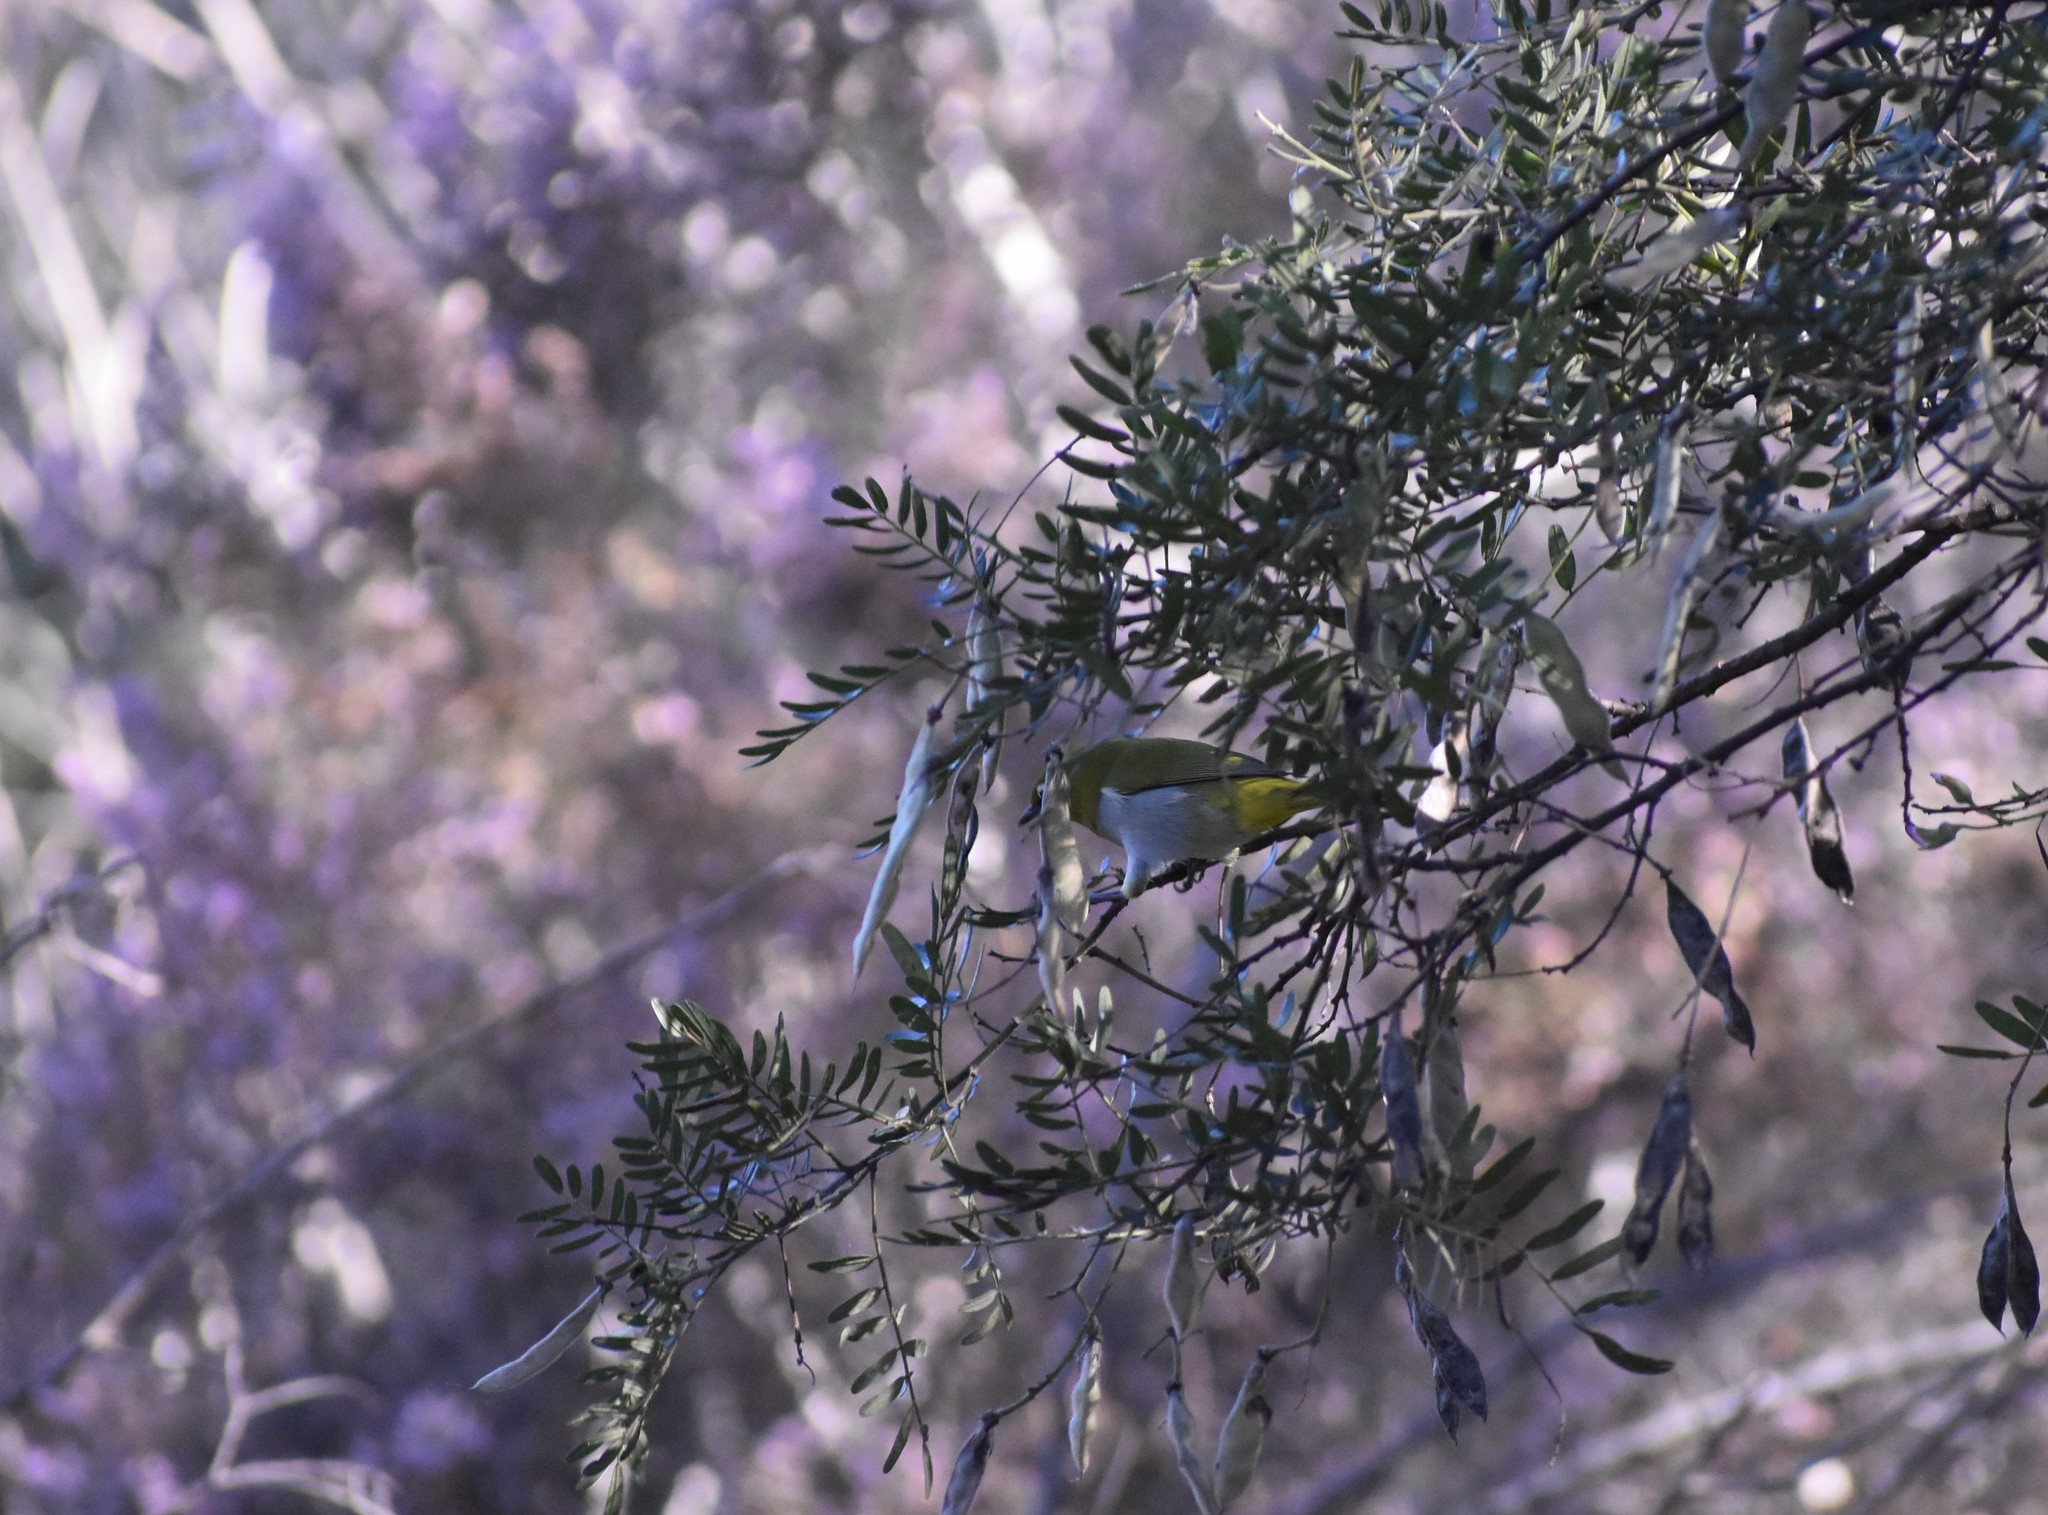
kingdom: Animalia
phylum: Chordata
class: Aves
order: Passeriformes
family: Zosteropidae
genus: Zosterops
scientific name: Zosterops virens
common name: Cape white-eye
